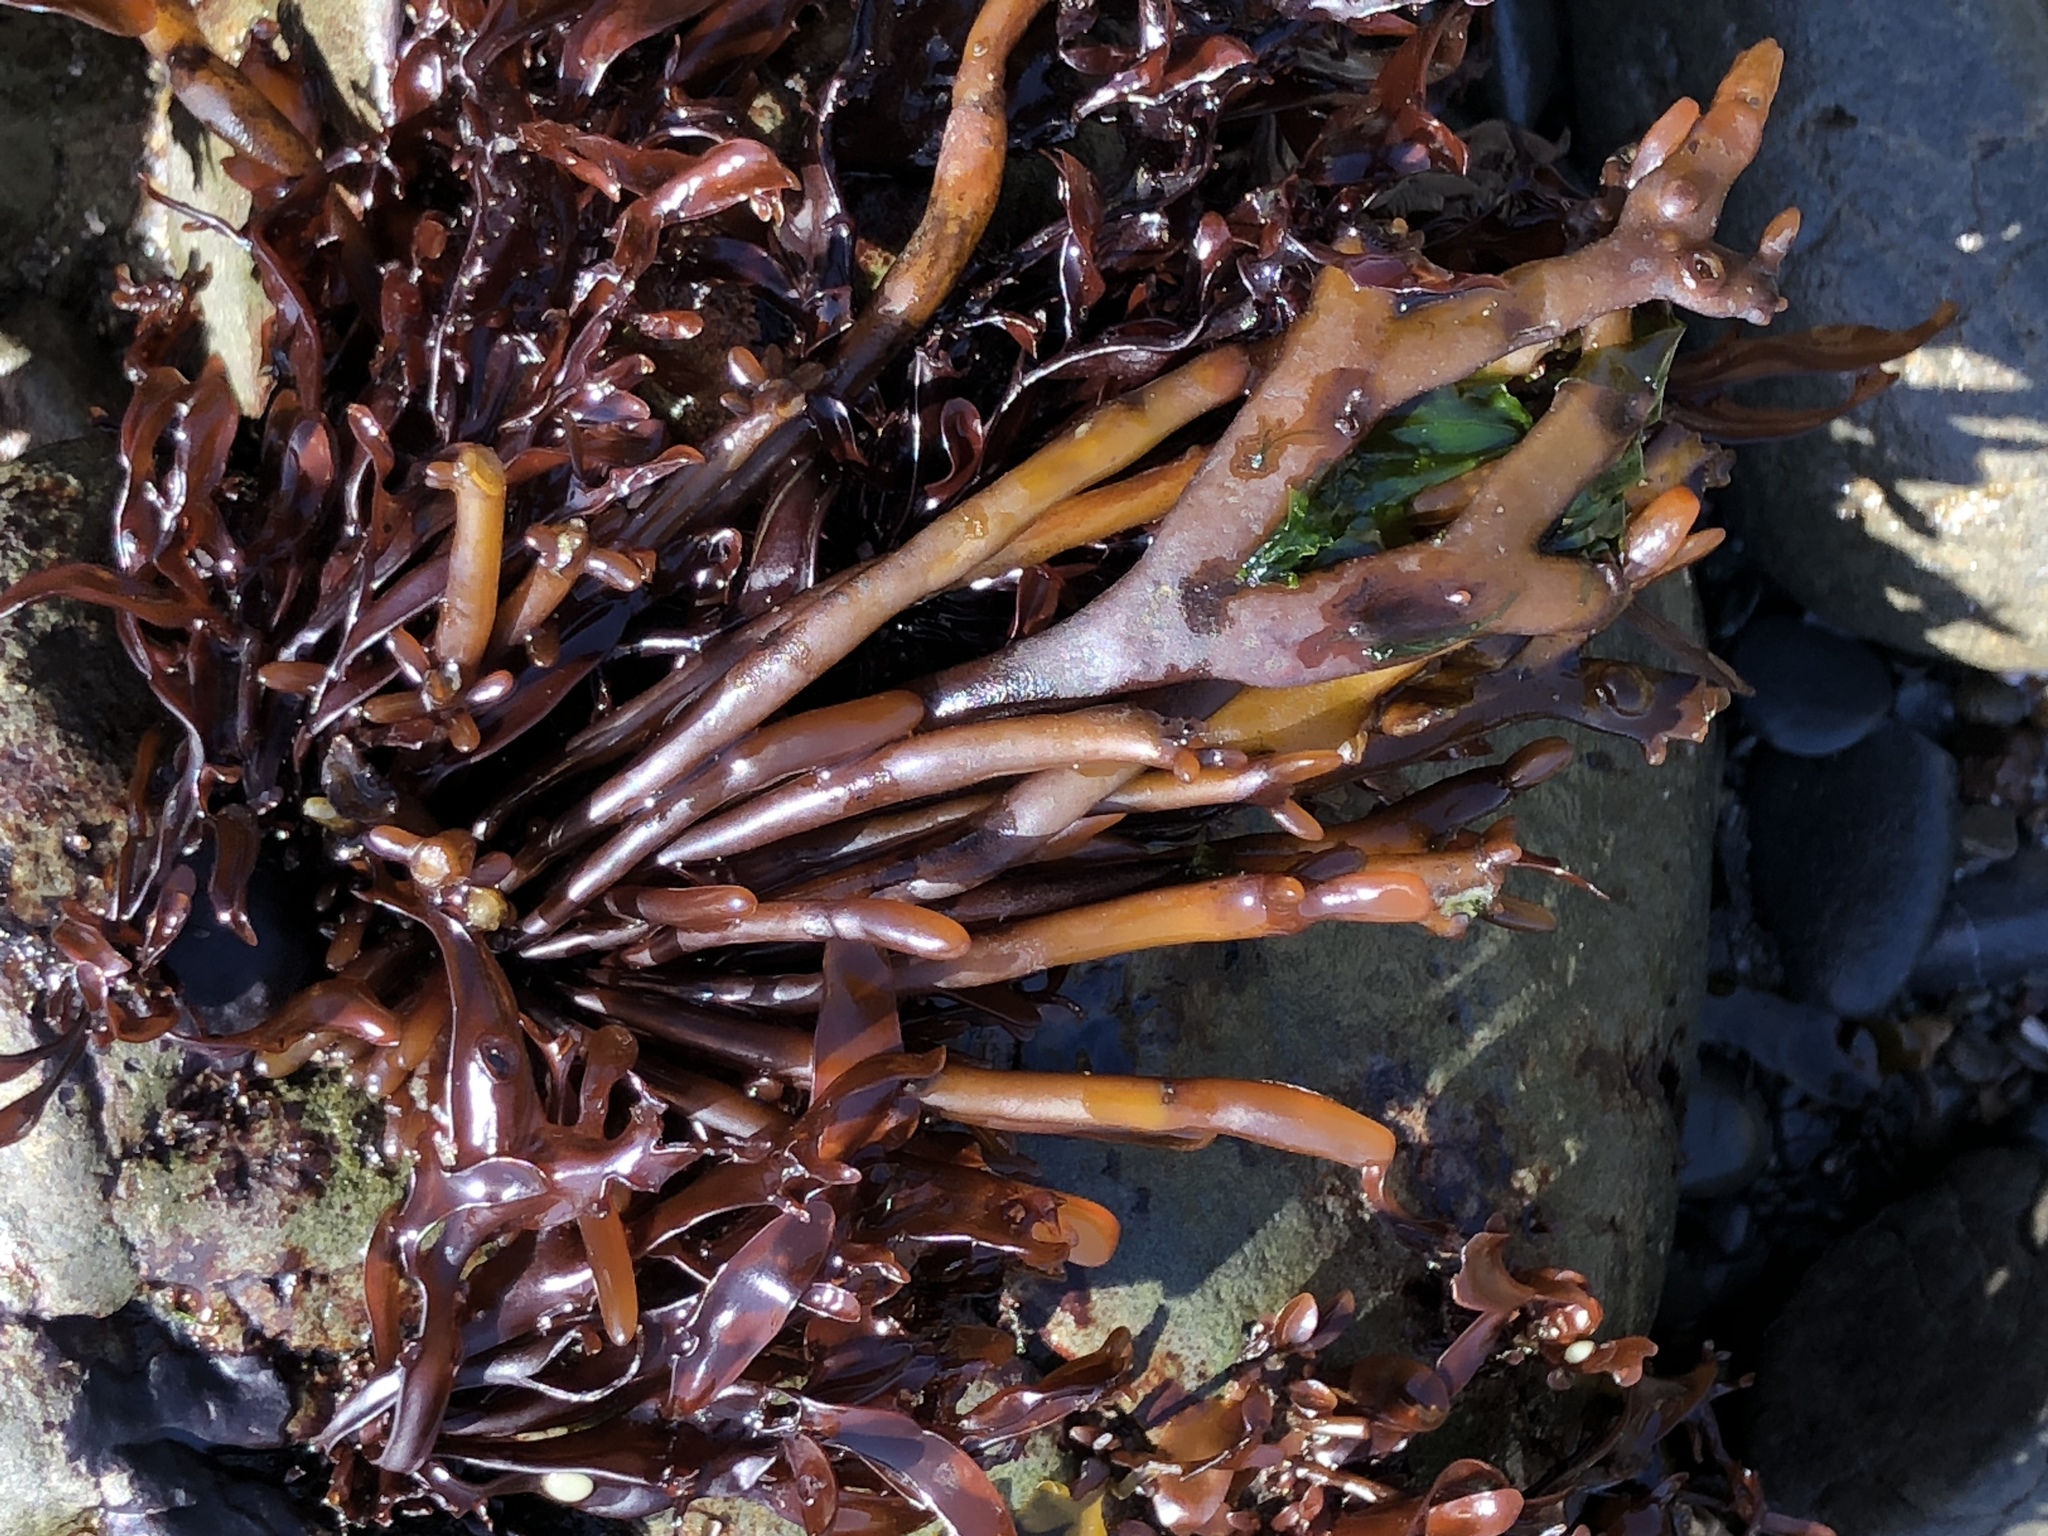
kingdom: Plantae
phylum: Rhodophyta
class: Florideophyceae
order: Gigartinales
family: Phyllophoraceae
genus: Ahnfeltiopsis
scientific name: Ahnfeltiopsis linearis
